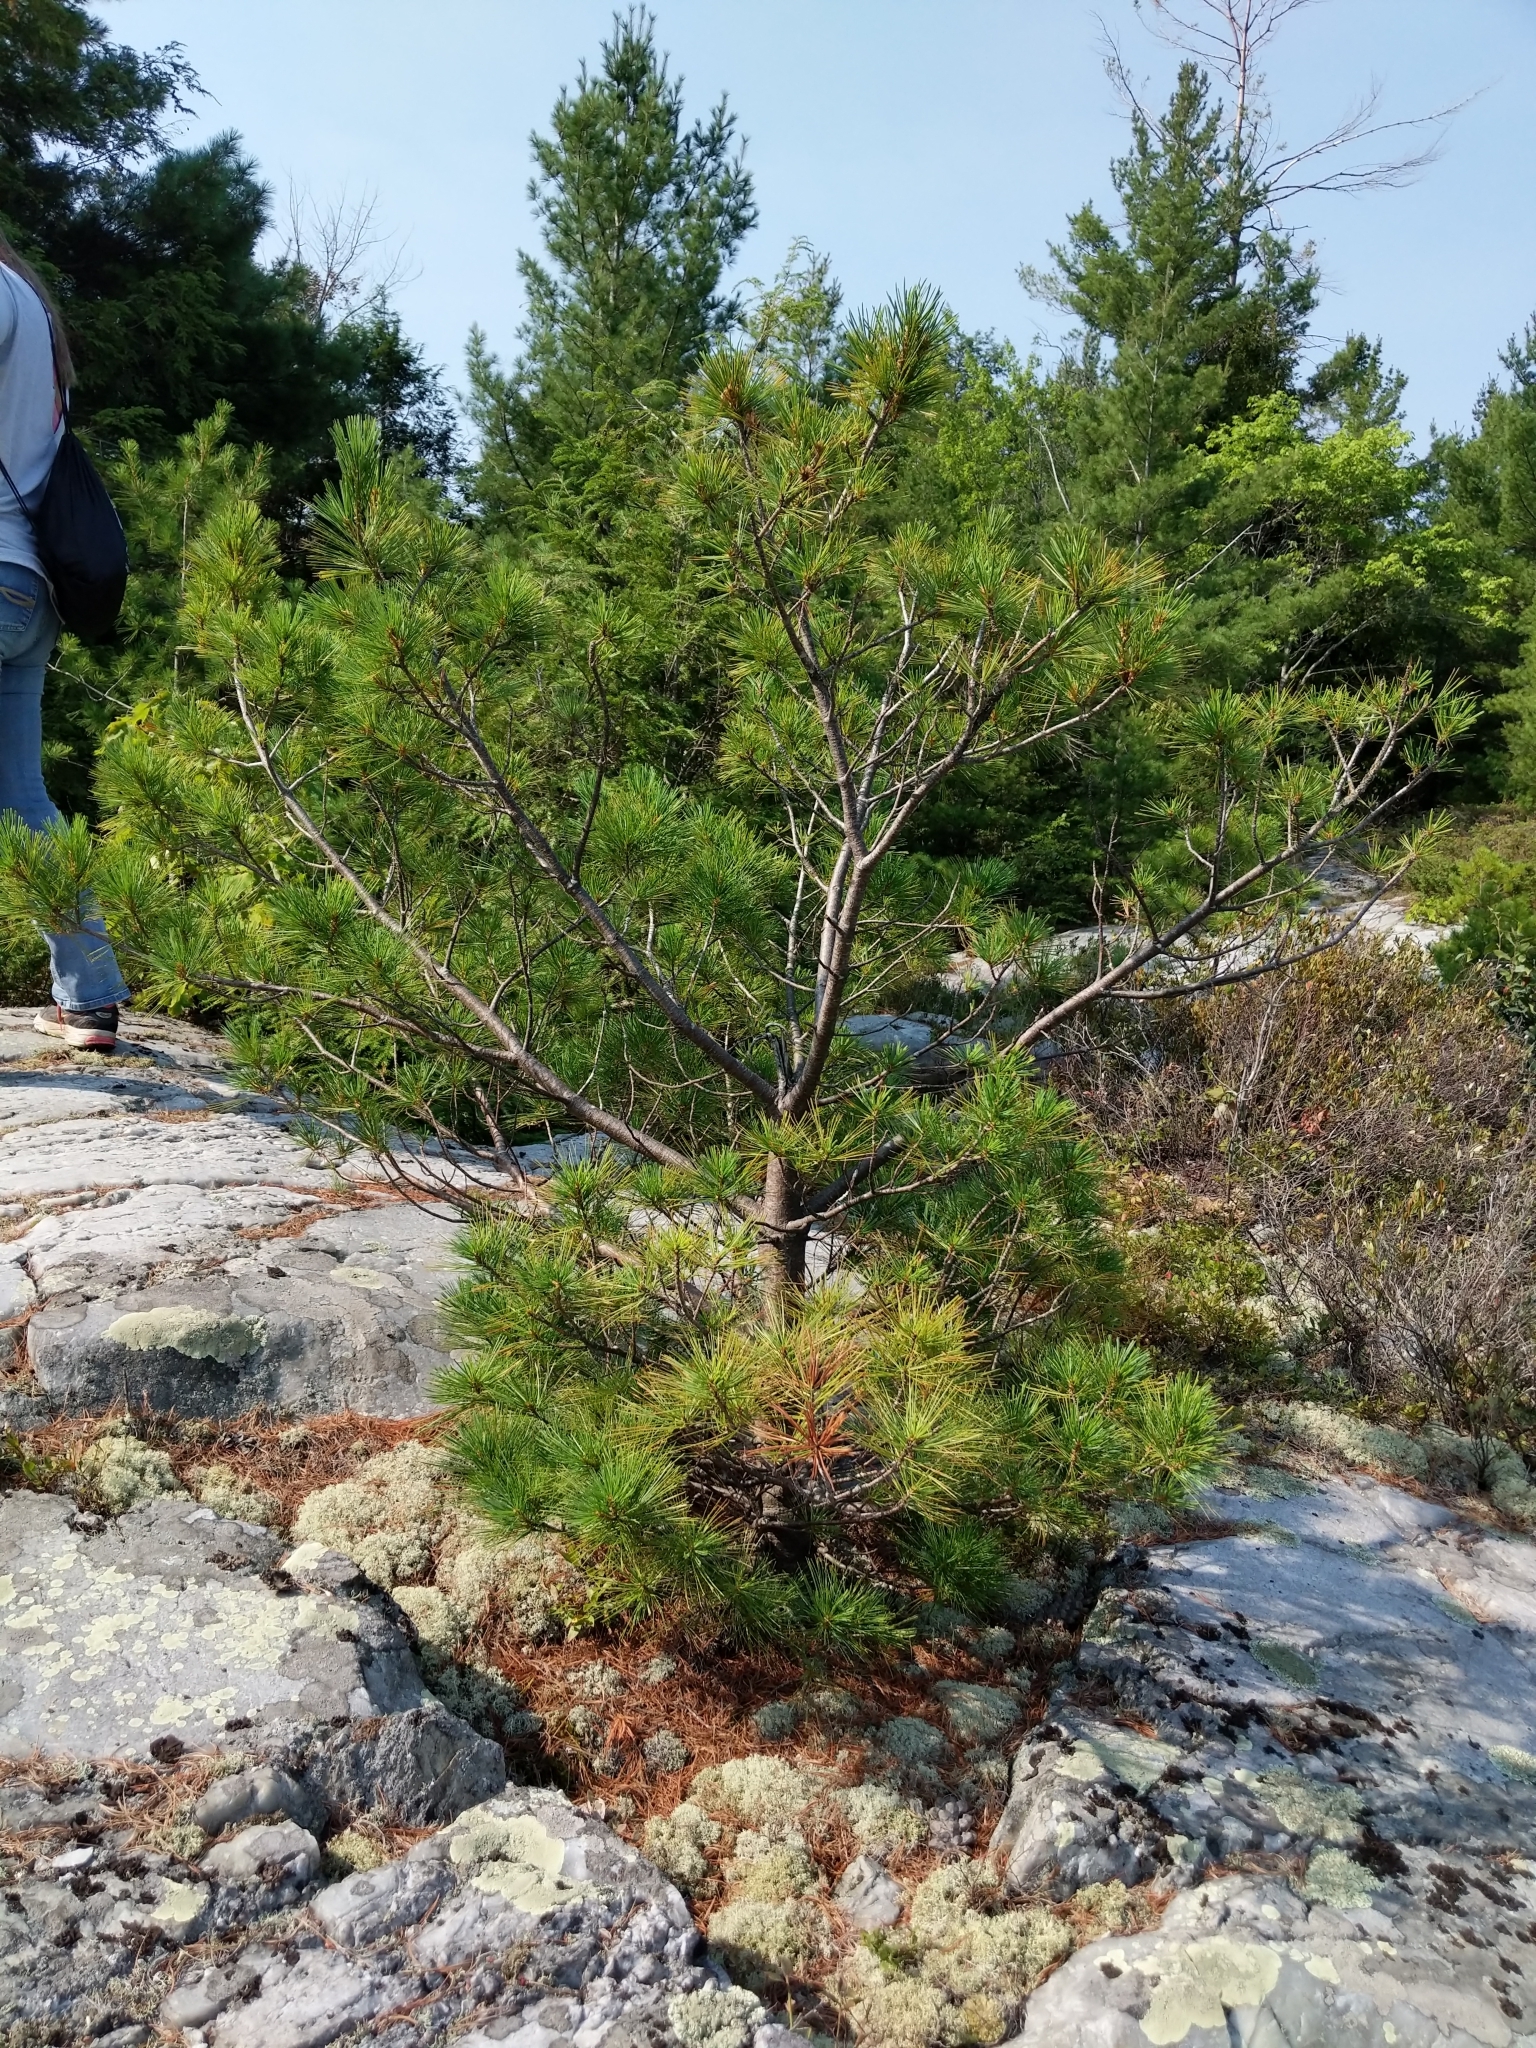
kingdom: Plantae
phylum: Tracheophyta
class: Pinopsida
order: Pinales
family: Pinaceae
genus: Pinus
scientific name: Pinus strobus
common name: Weymouth pine
